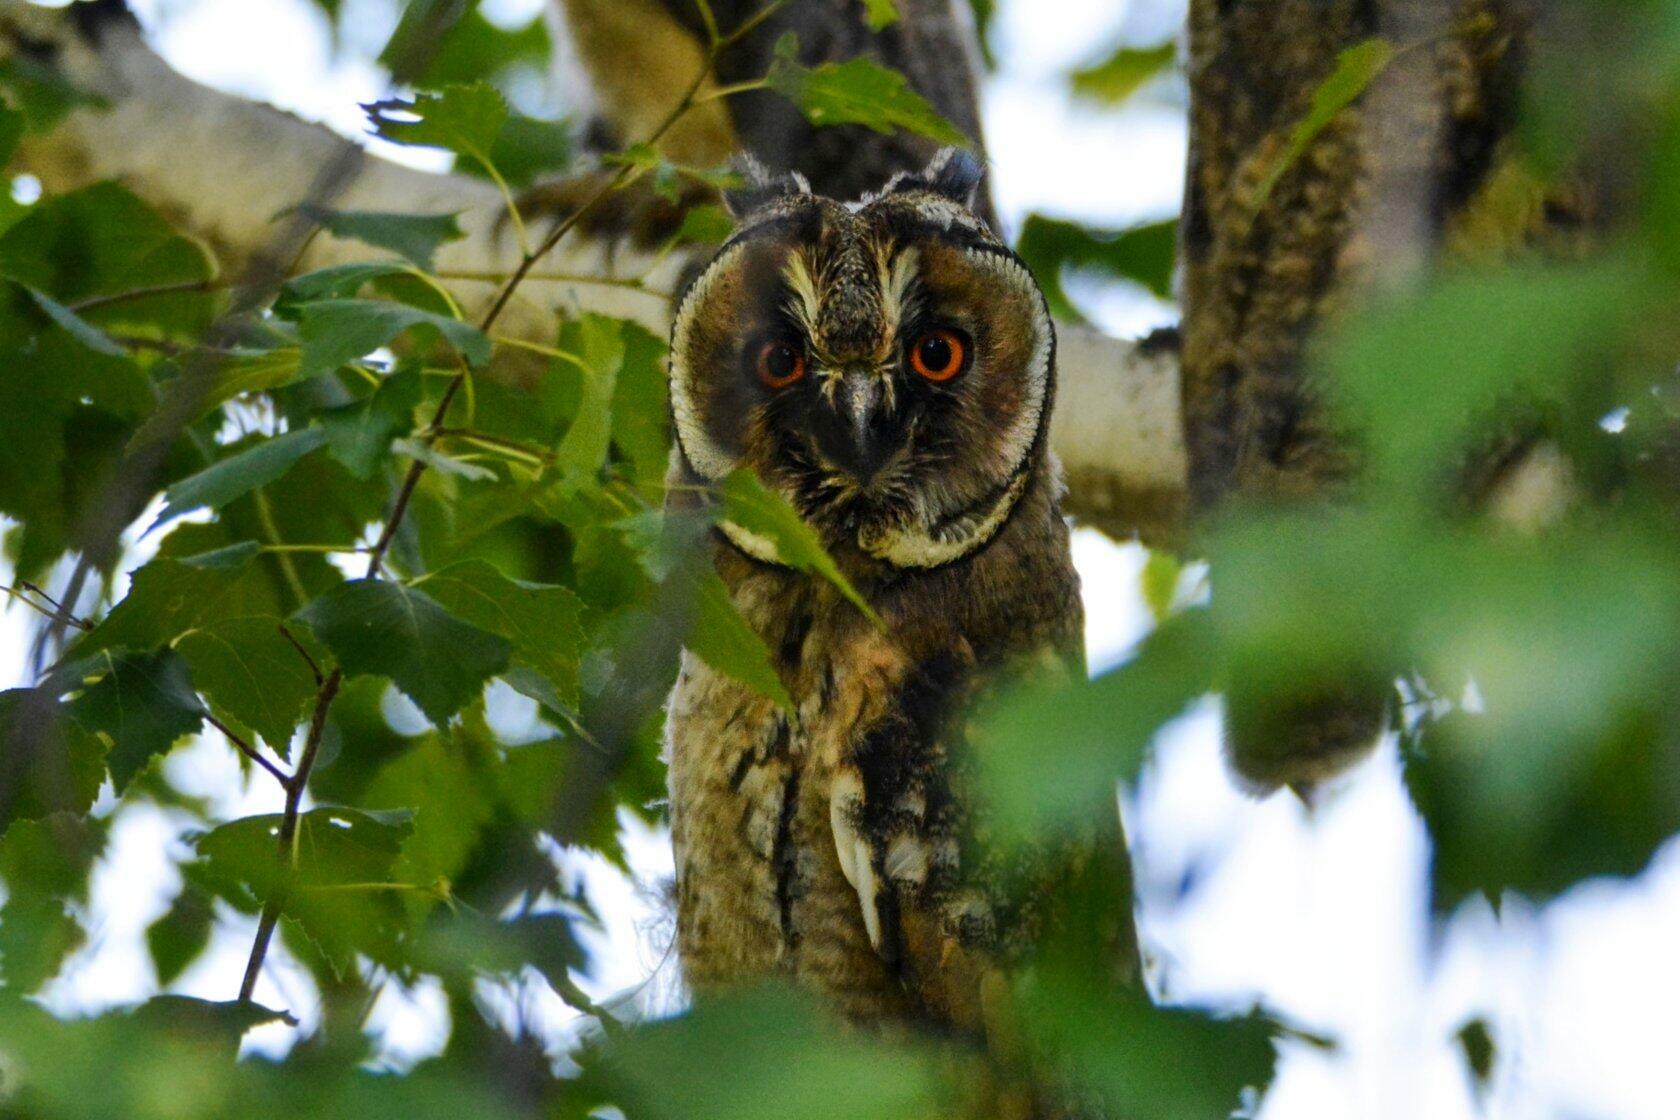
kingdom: Animalia
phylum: Chordata
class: Aves
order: Strigiformes
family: Strigidae
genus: Asio
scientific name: Asio otus
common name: Long-eared owl
